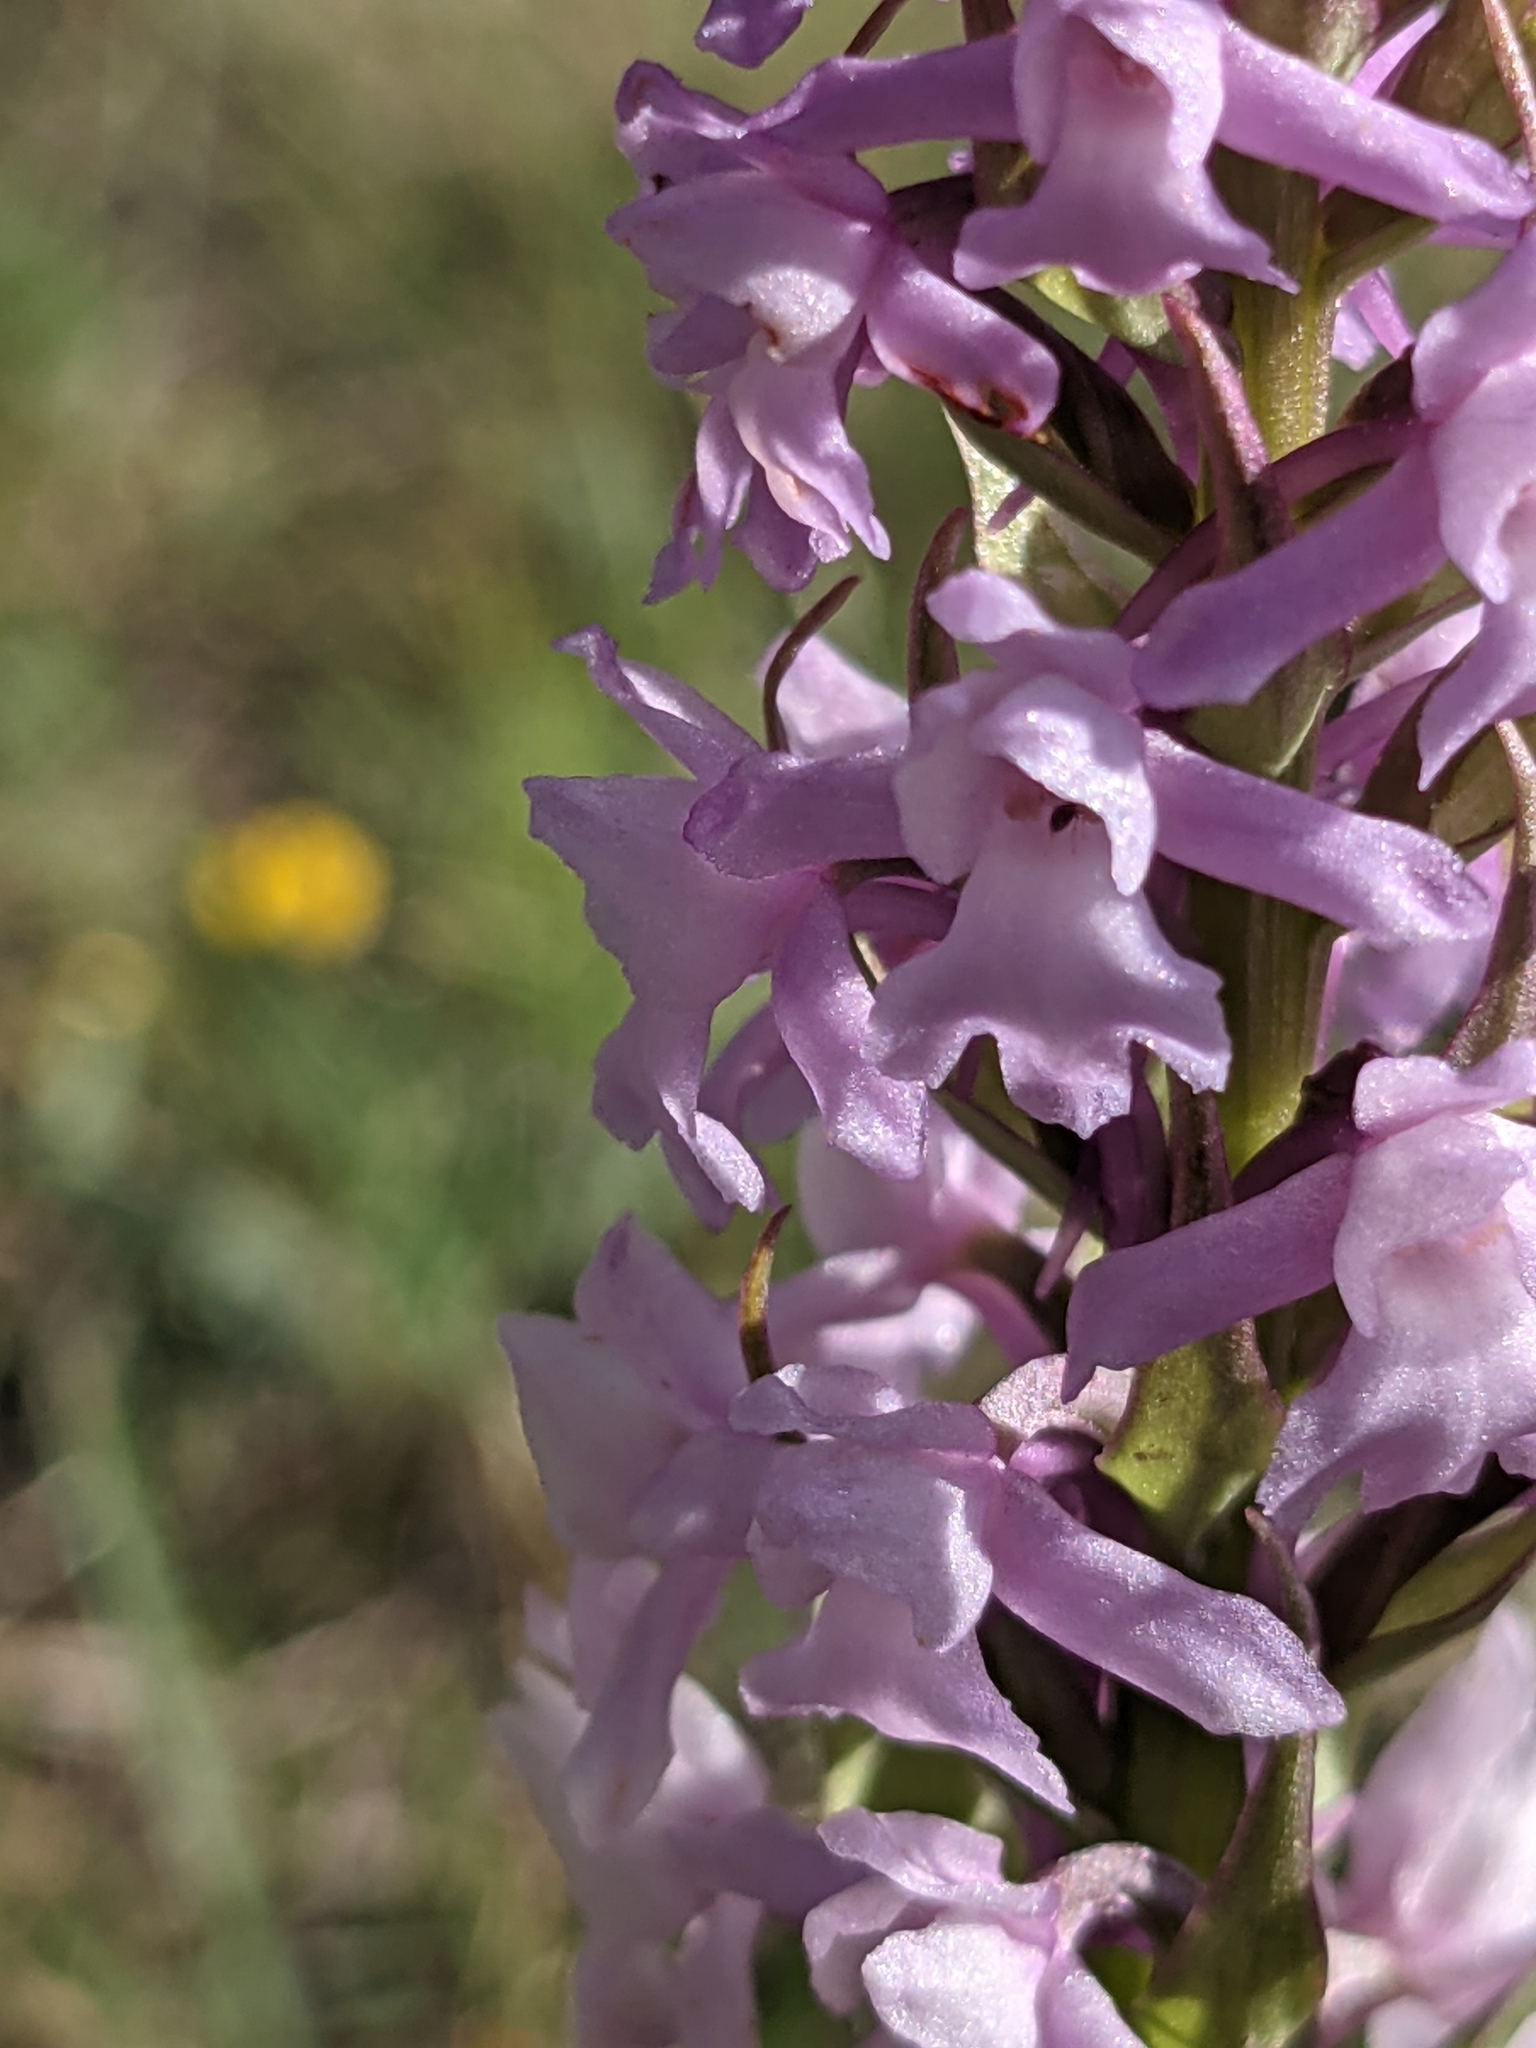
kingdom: Plantae
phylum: Tracheophyta
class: Liliopsida
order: Asparagales
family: Orchidaceae
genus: Gymnadenia
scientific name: Gymnadenia conopsea
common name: Fragrant orchid
